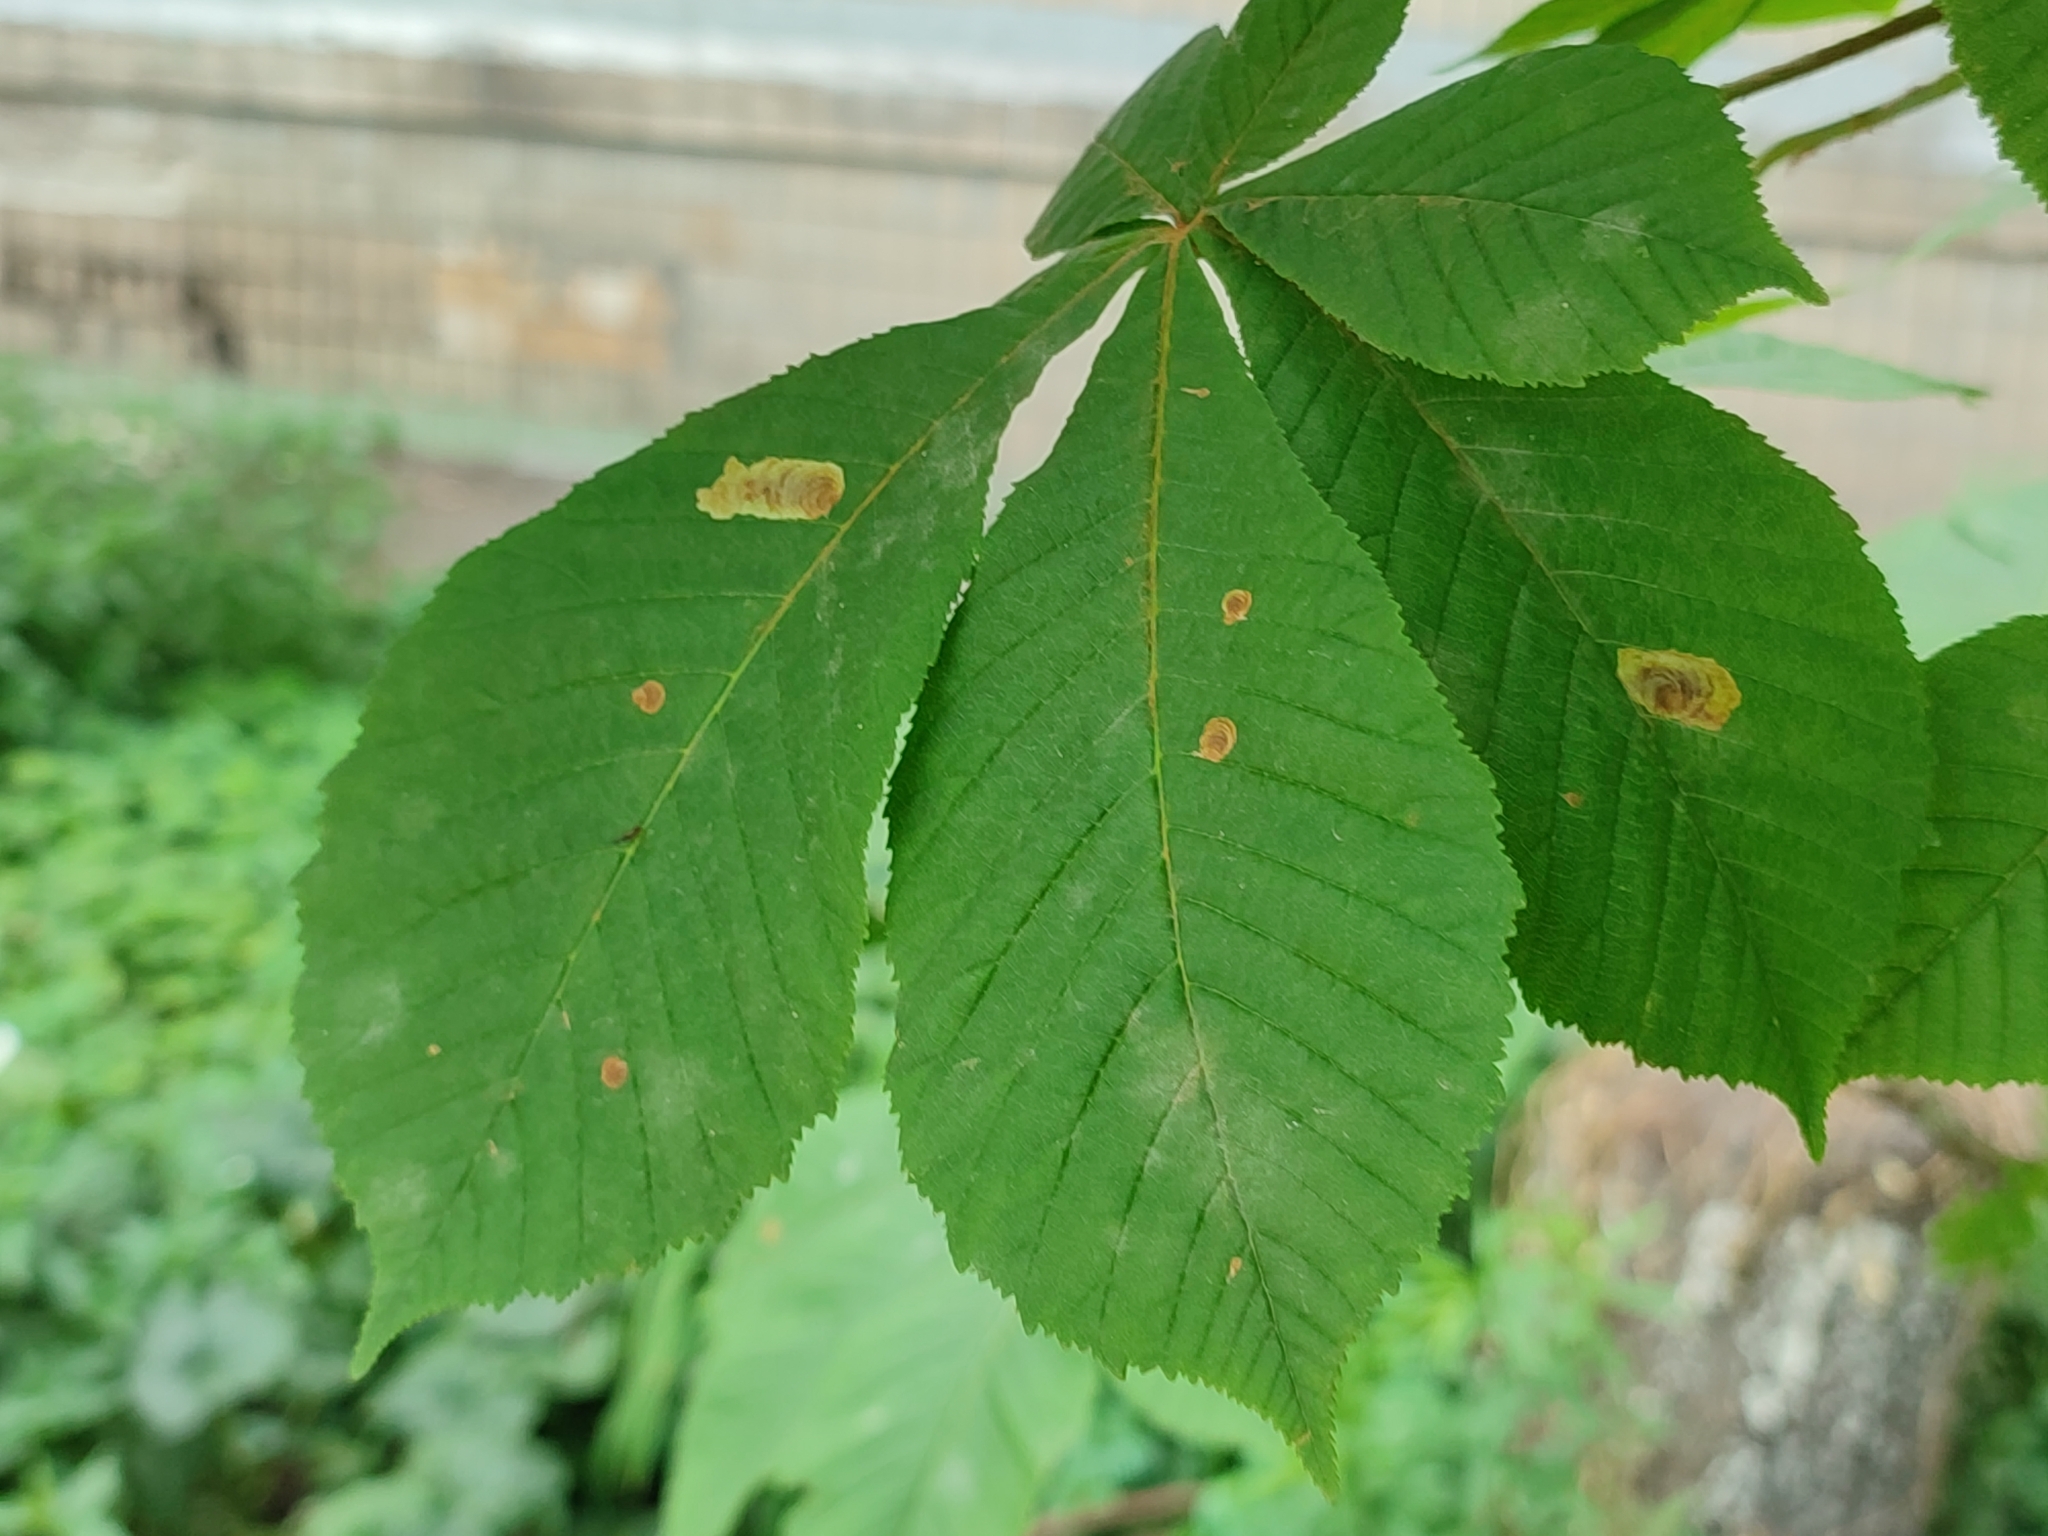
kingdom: Animalia
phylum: Arthropoda
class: Insecta
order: Lepidoptera
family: Gracillariidae
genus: Cameraria
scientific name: Cameraria ohridella
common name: Horse-chestnut leaf-miner
